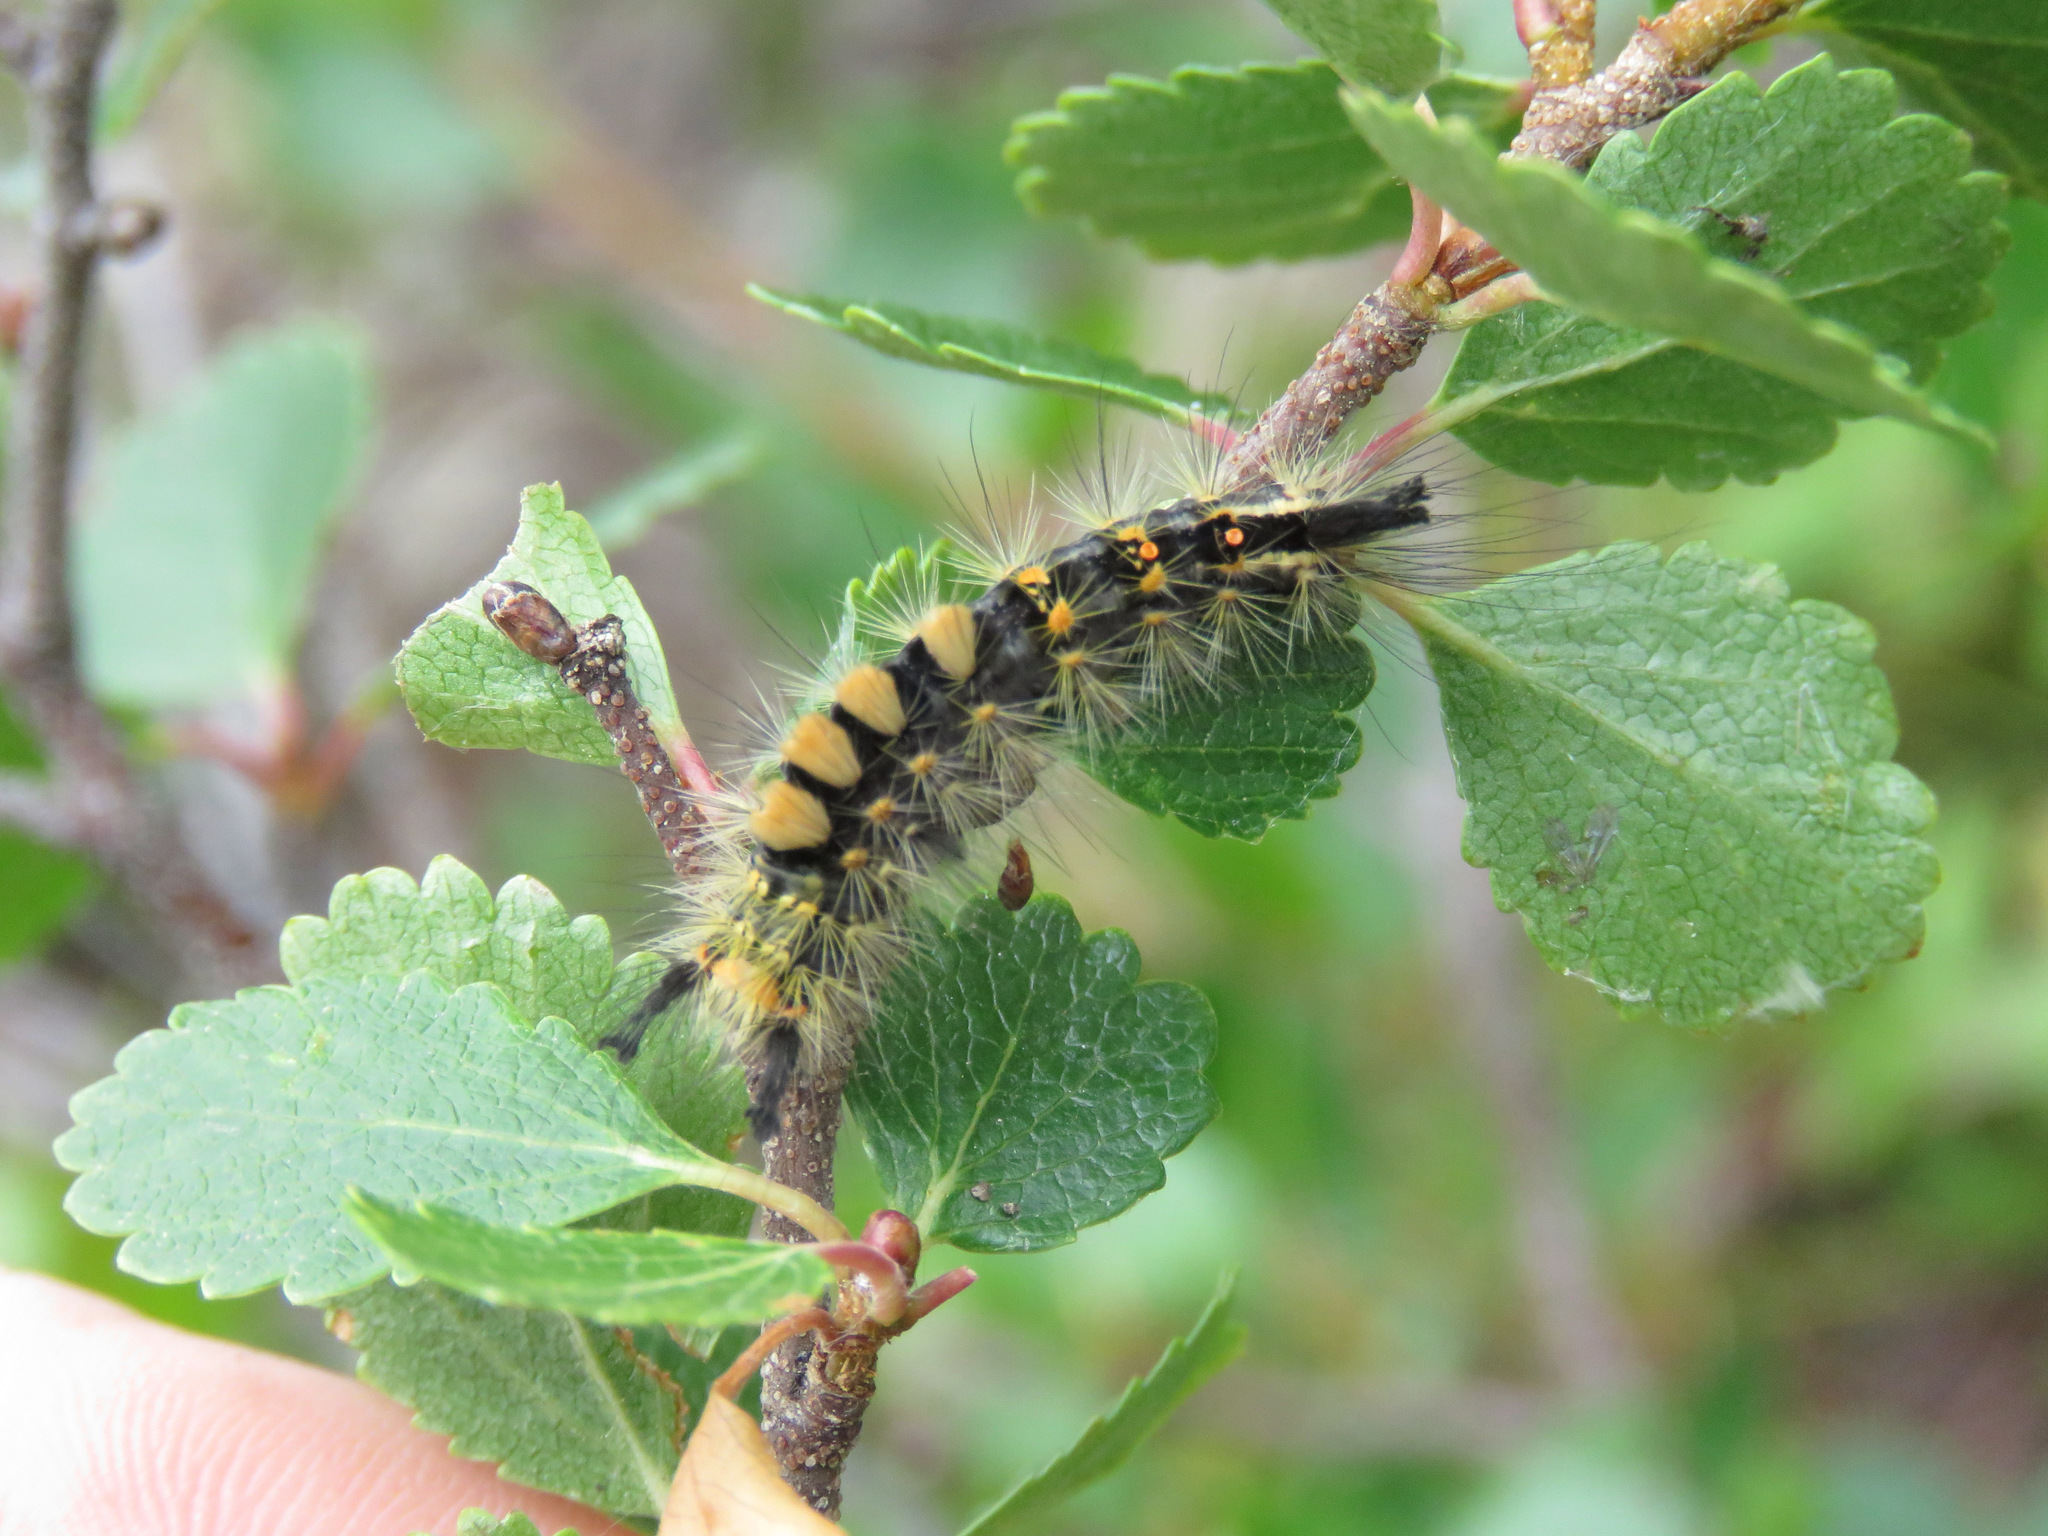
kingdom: Animalia
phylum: Arthropoda
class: Insecta
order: Lepidoptera
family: Erebidae
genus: Orgyia
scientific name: Orgyia antiqua
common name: Vapourer
